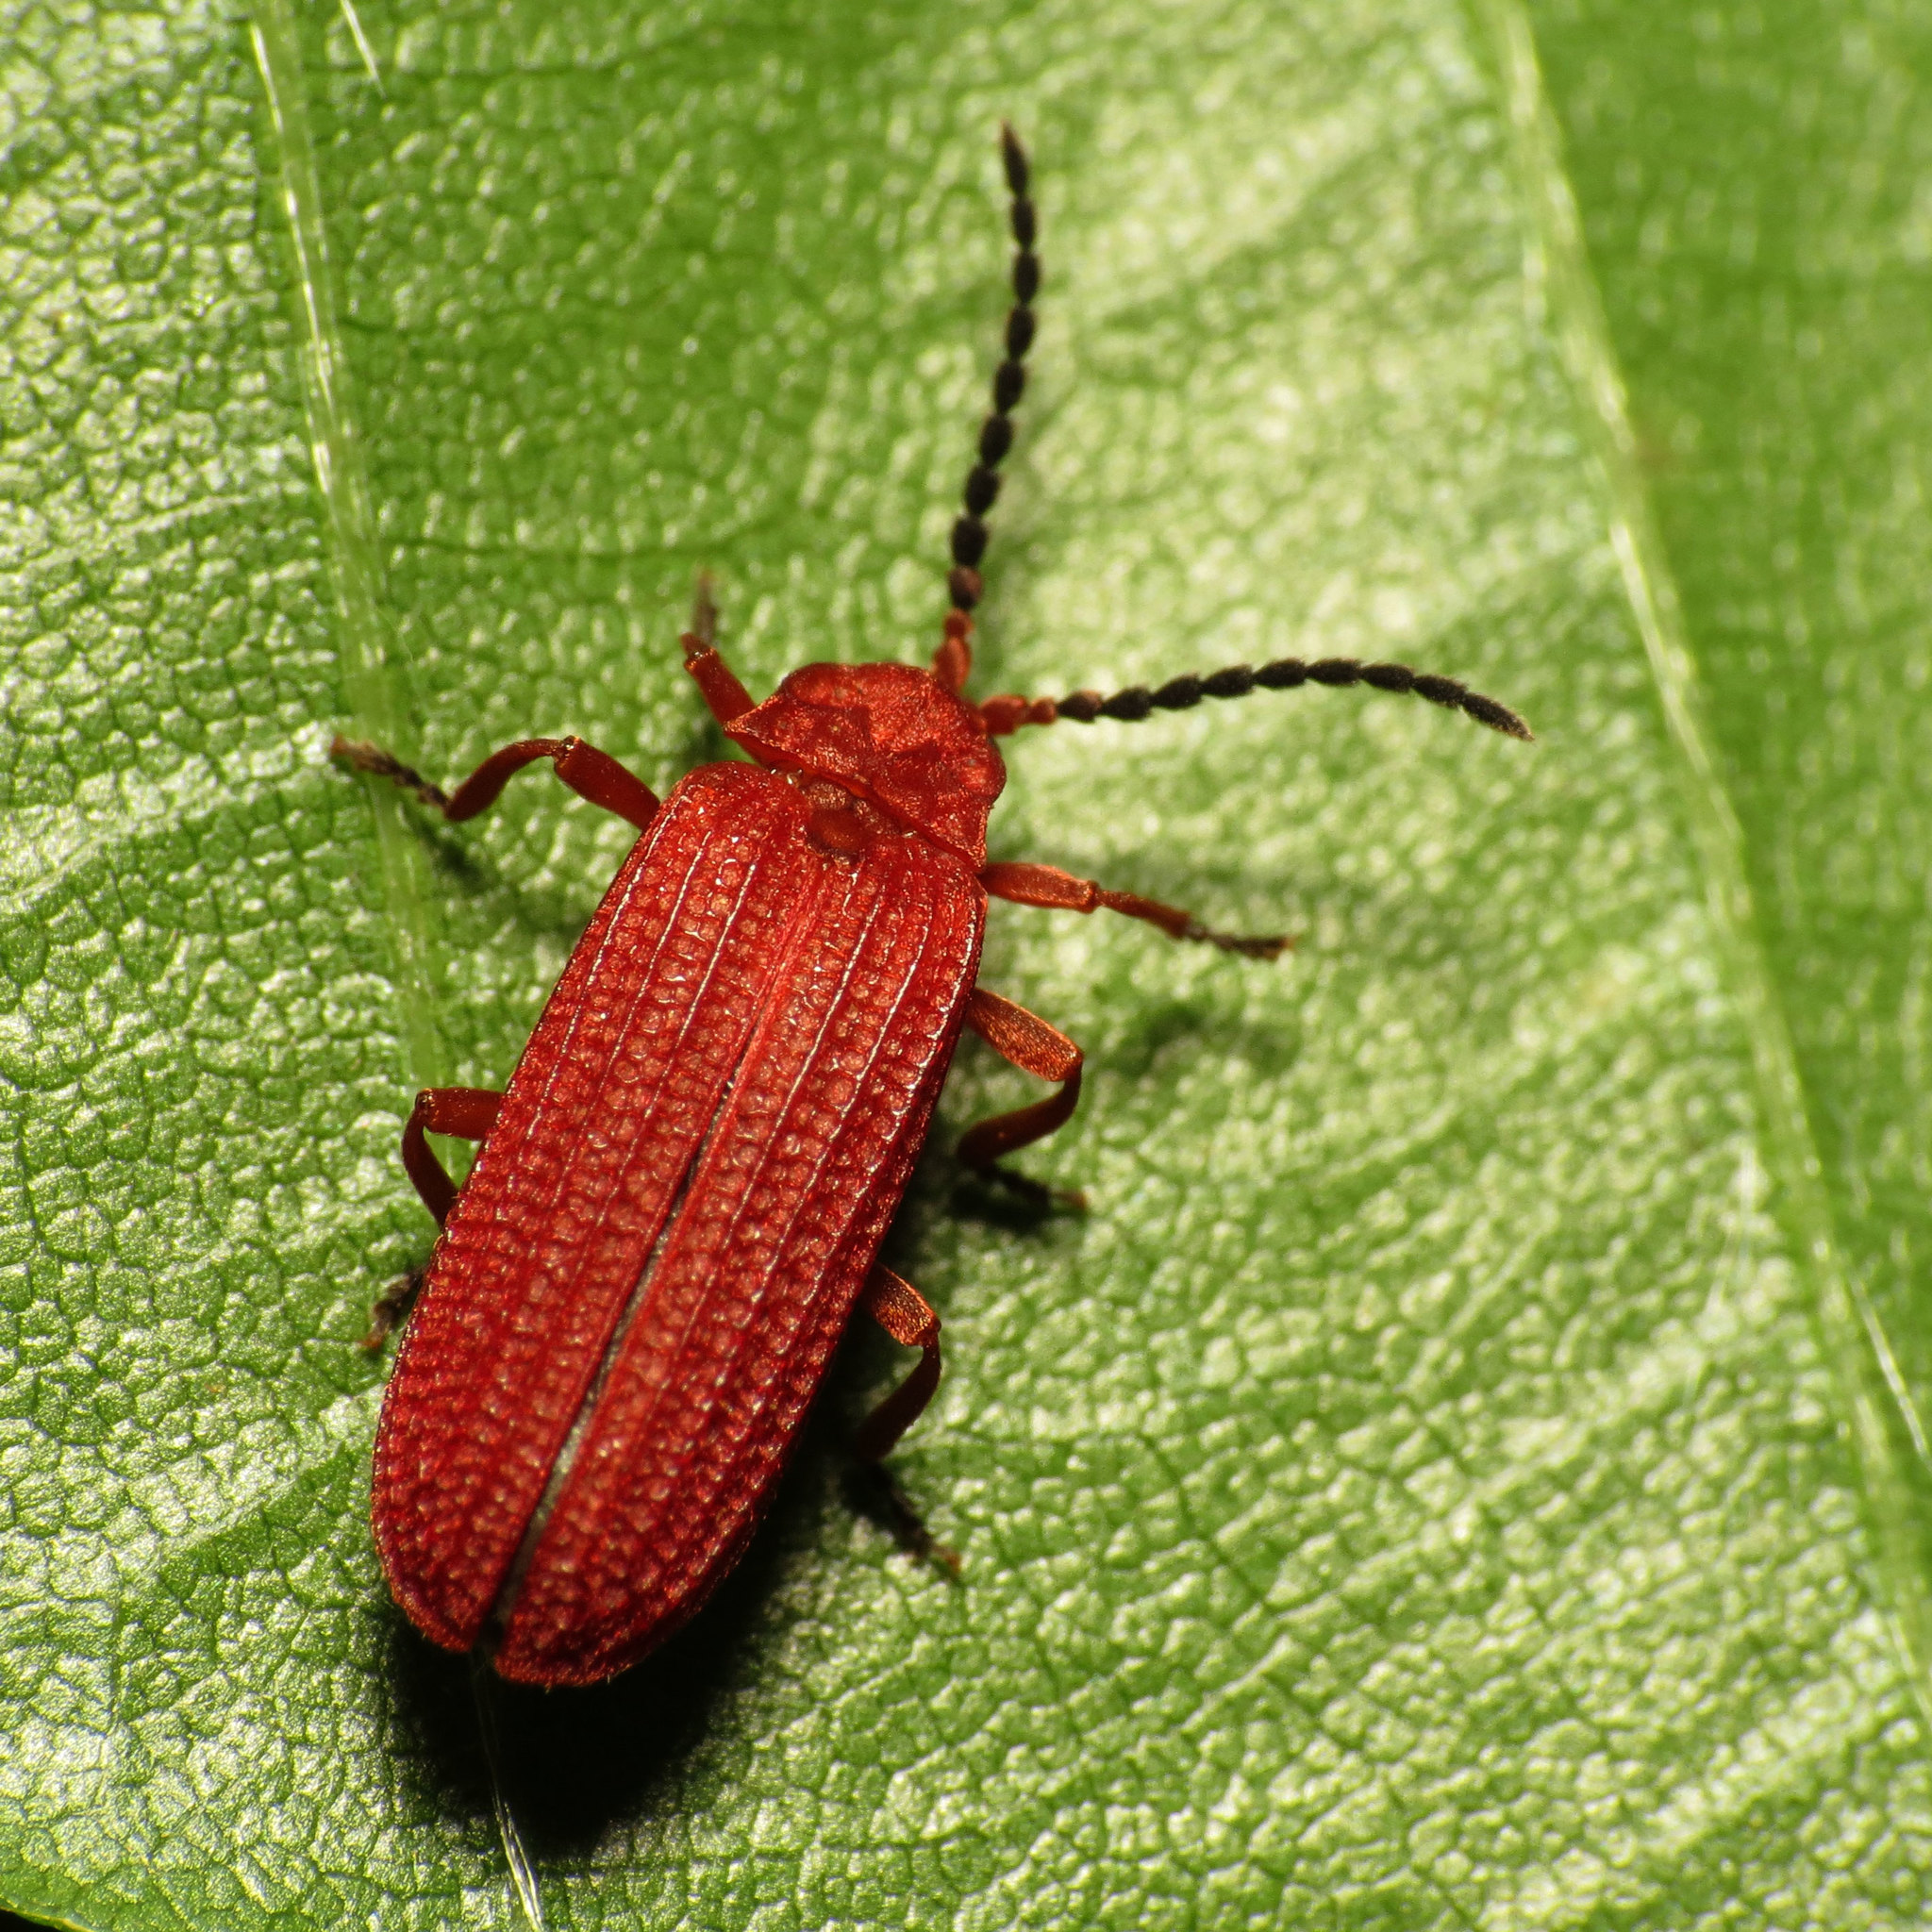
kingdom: Animalia
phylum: Arthropoda
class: Insecta
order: Coleoptera
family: Lycidae
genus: Punicealis
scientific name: Punicealis
